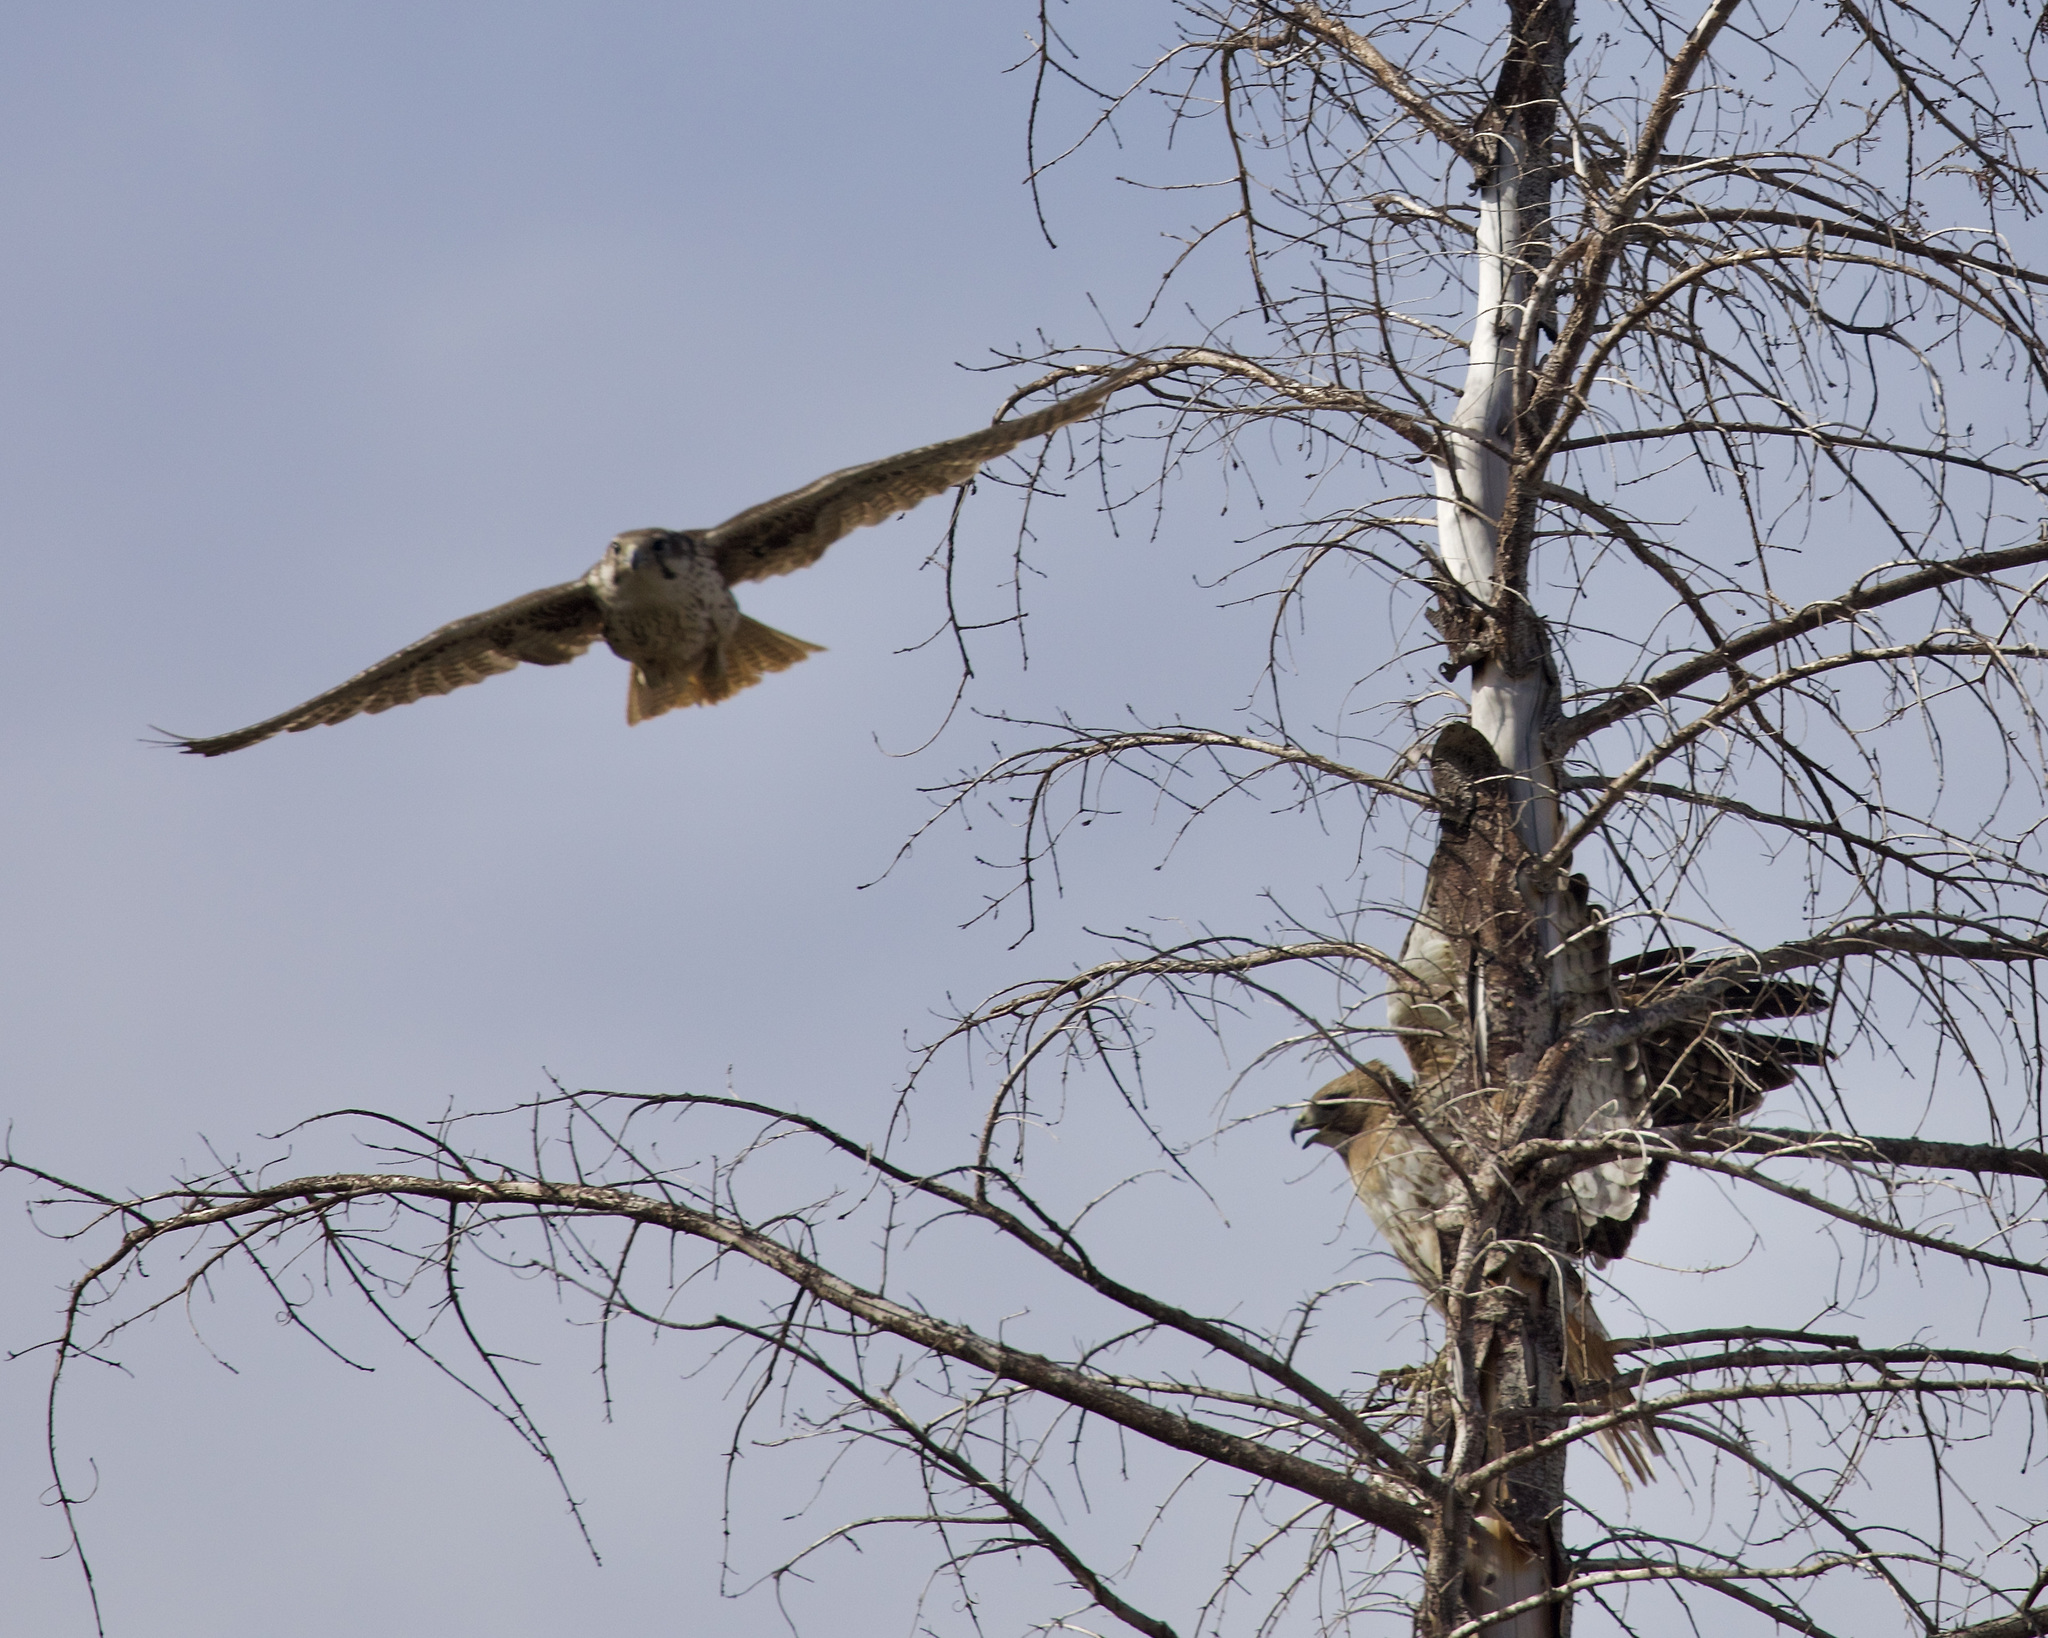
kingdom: Animalia
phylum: Chordata
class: Aves
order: Falconiformes
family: Falconidae
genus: Falco
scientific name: Falco mexicanus
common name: Prairie falcon
